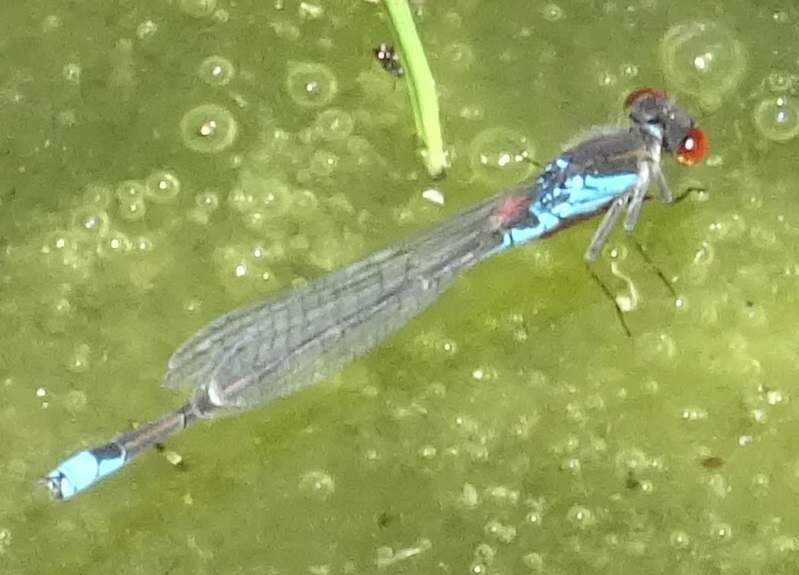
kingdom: Animalia
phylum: Arthropoda
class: Insecta
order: Odonata
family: Coenagrionidae
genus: Erythromma
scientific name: Erythromma viridulum
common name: Small red-eyed damselfly
